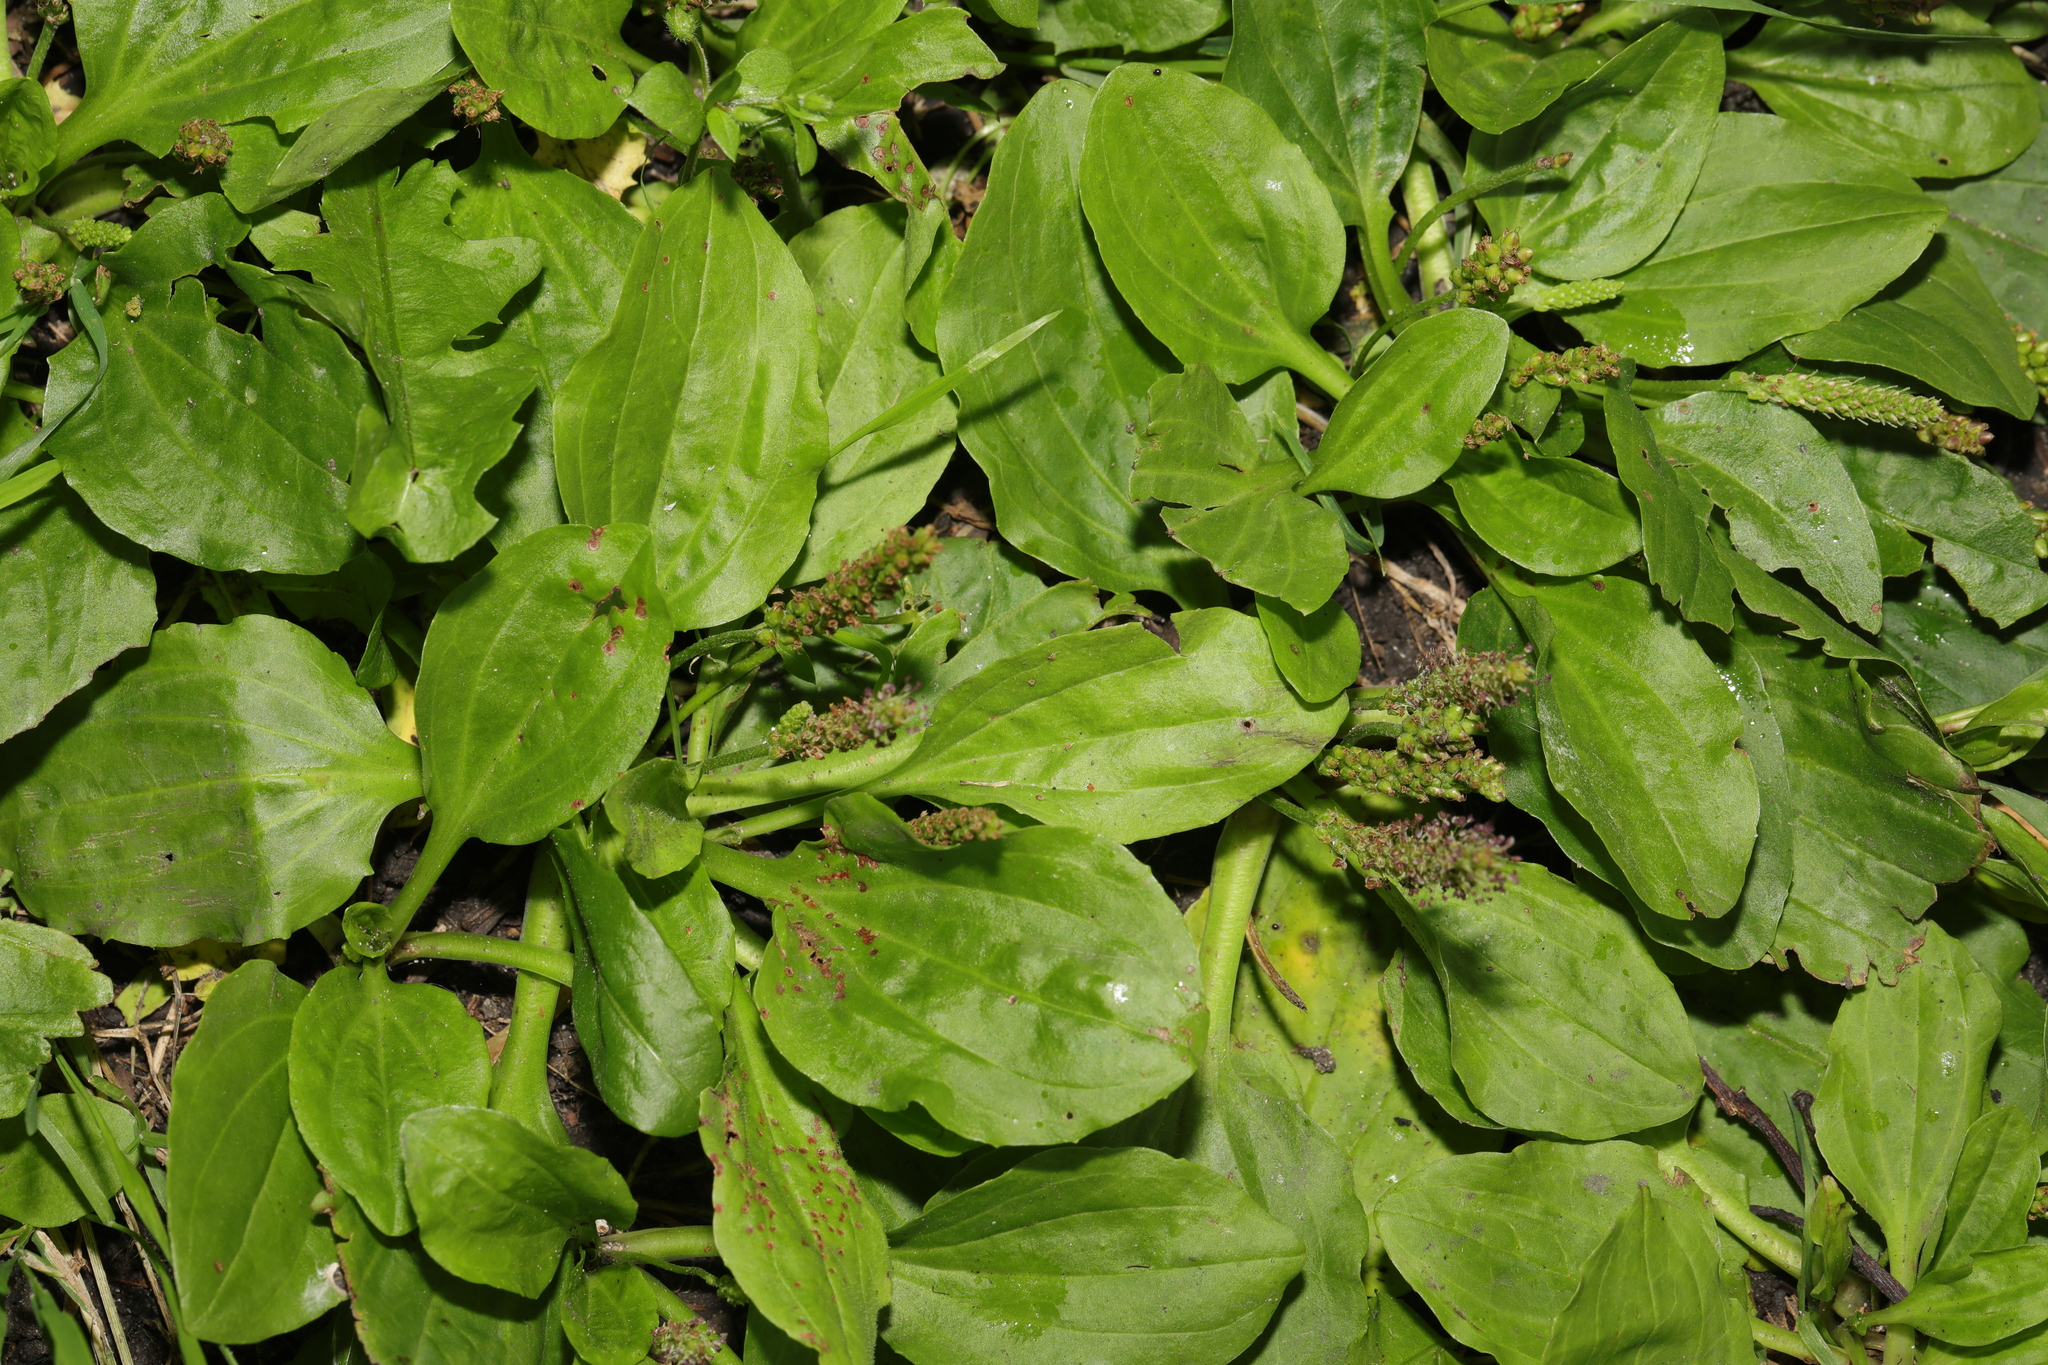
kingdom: Plantae
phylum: Tracheophyta
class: Magnoliopsida
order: Lamiales
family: Plantaginaceae
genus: Plantago
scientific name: Plantago major
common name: Common plantain
